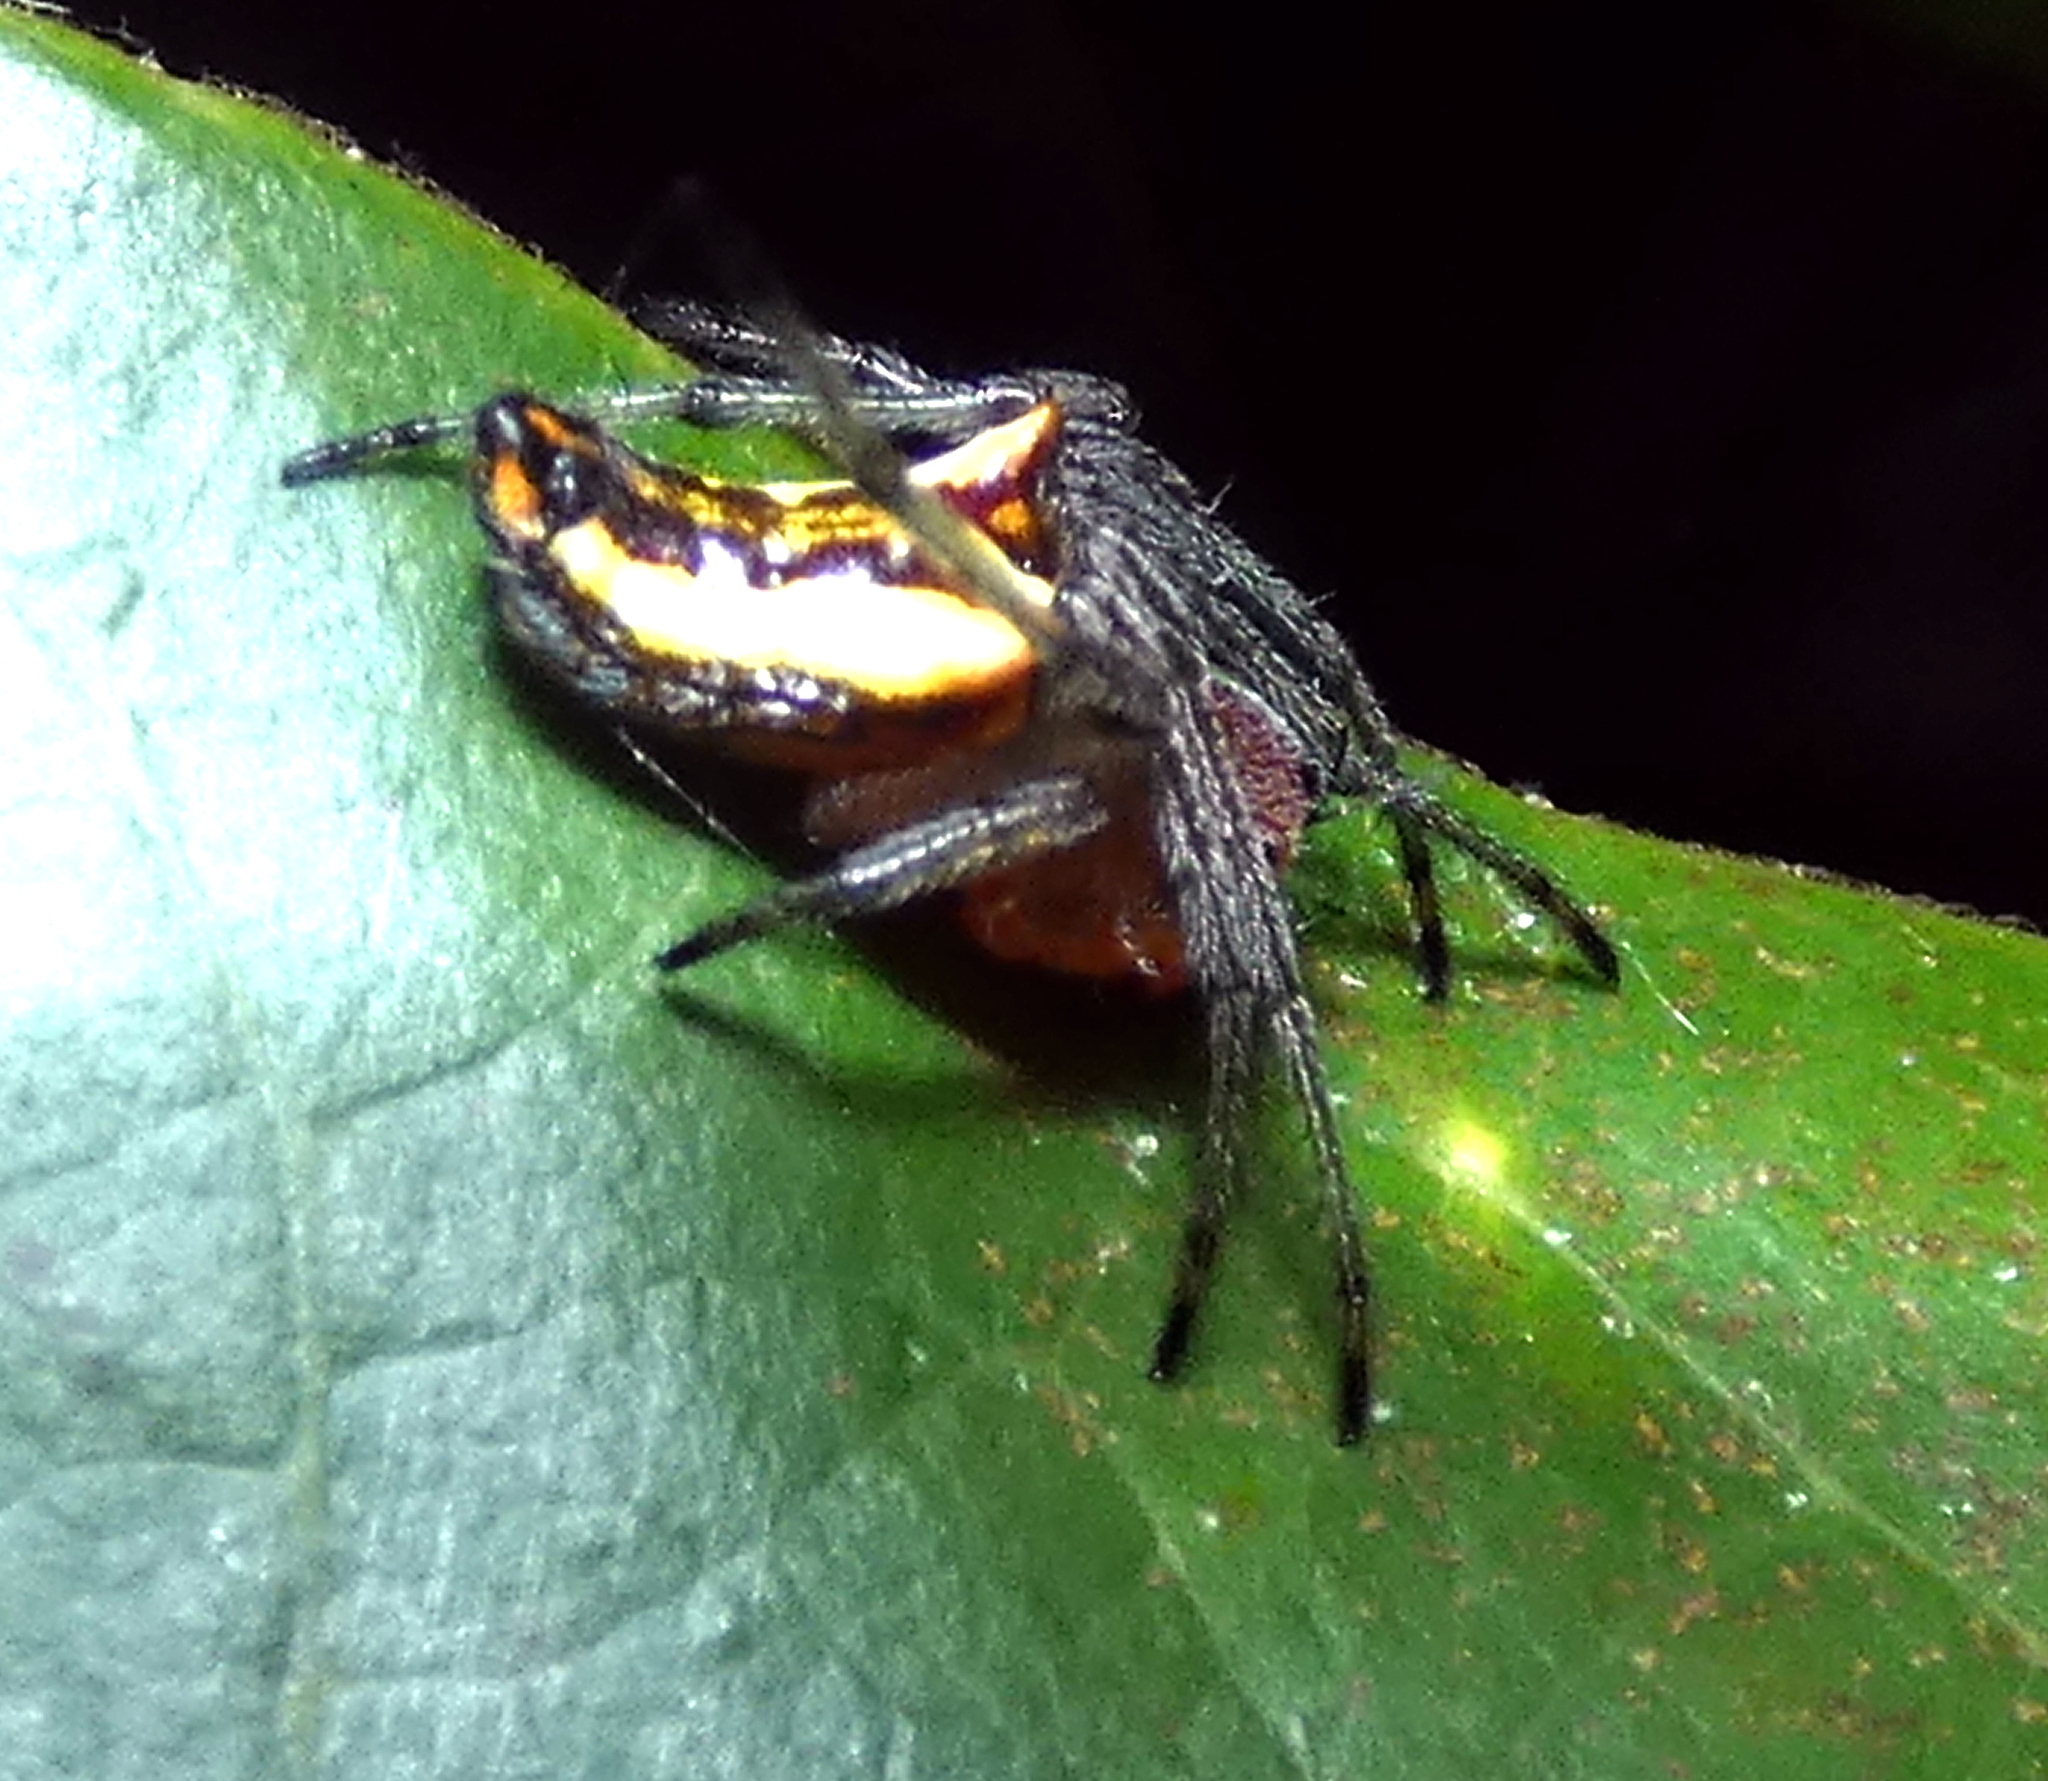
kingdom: Animalia
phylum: Arthropoda
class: Arachnida
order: Araneae
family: Araneidae
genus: Alpaida
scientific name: Alpaida bicornuta
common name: Orb weavers
